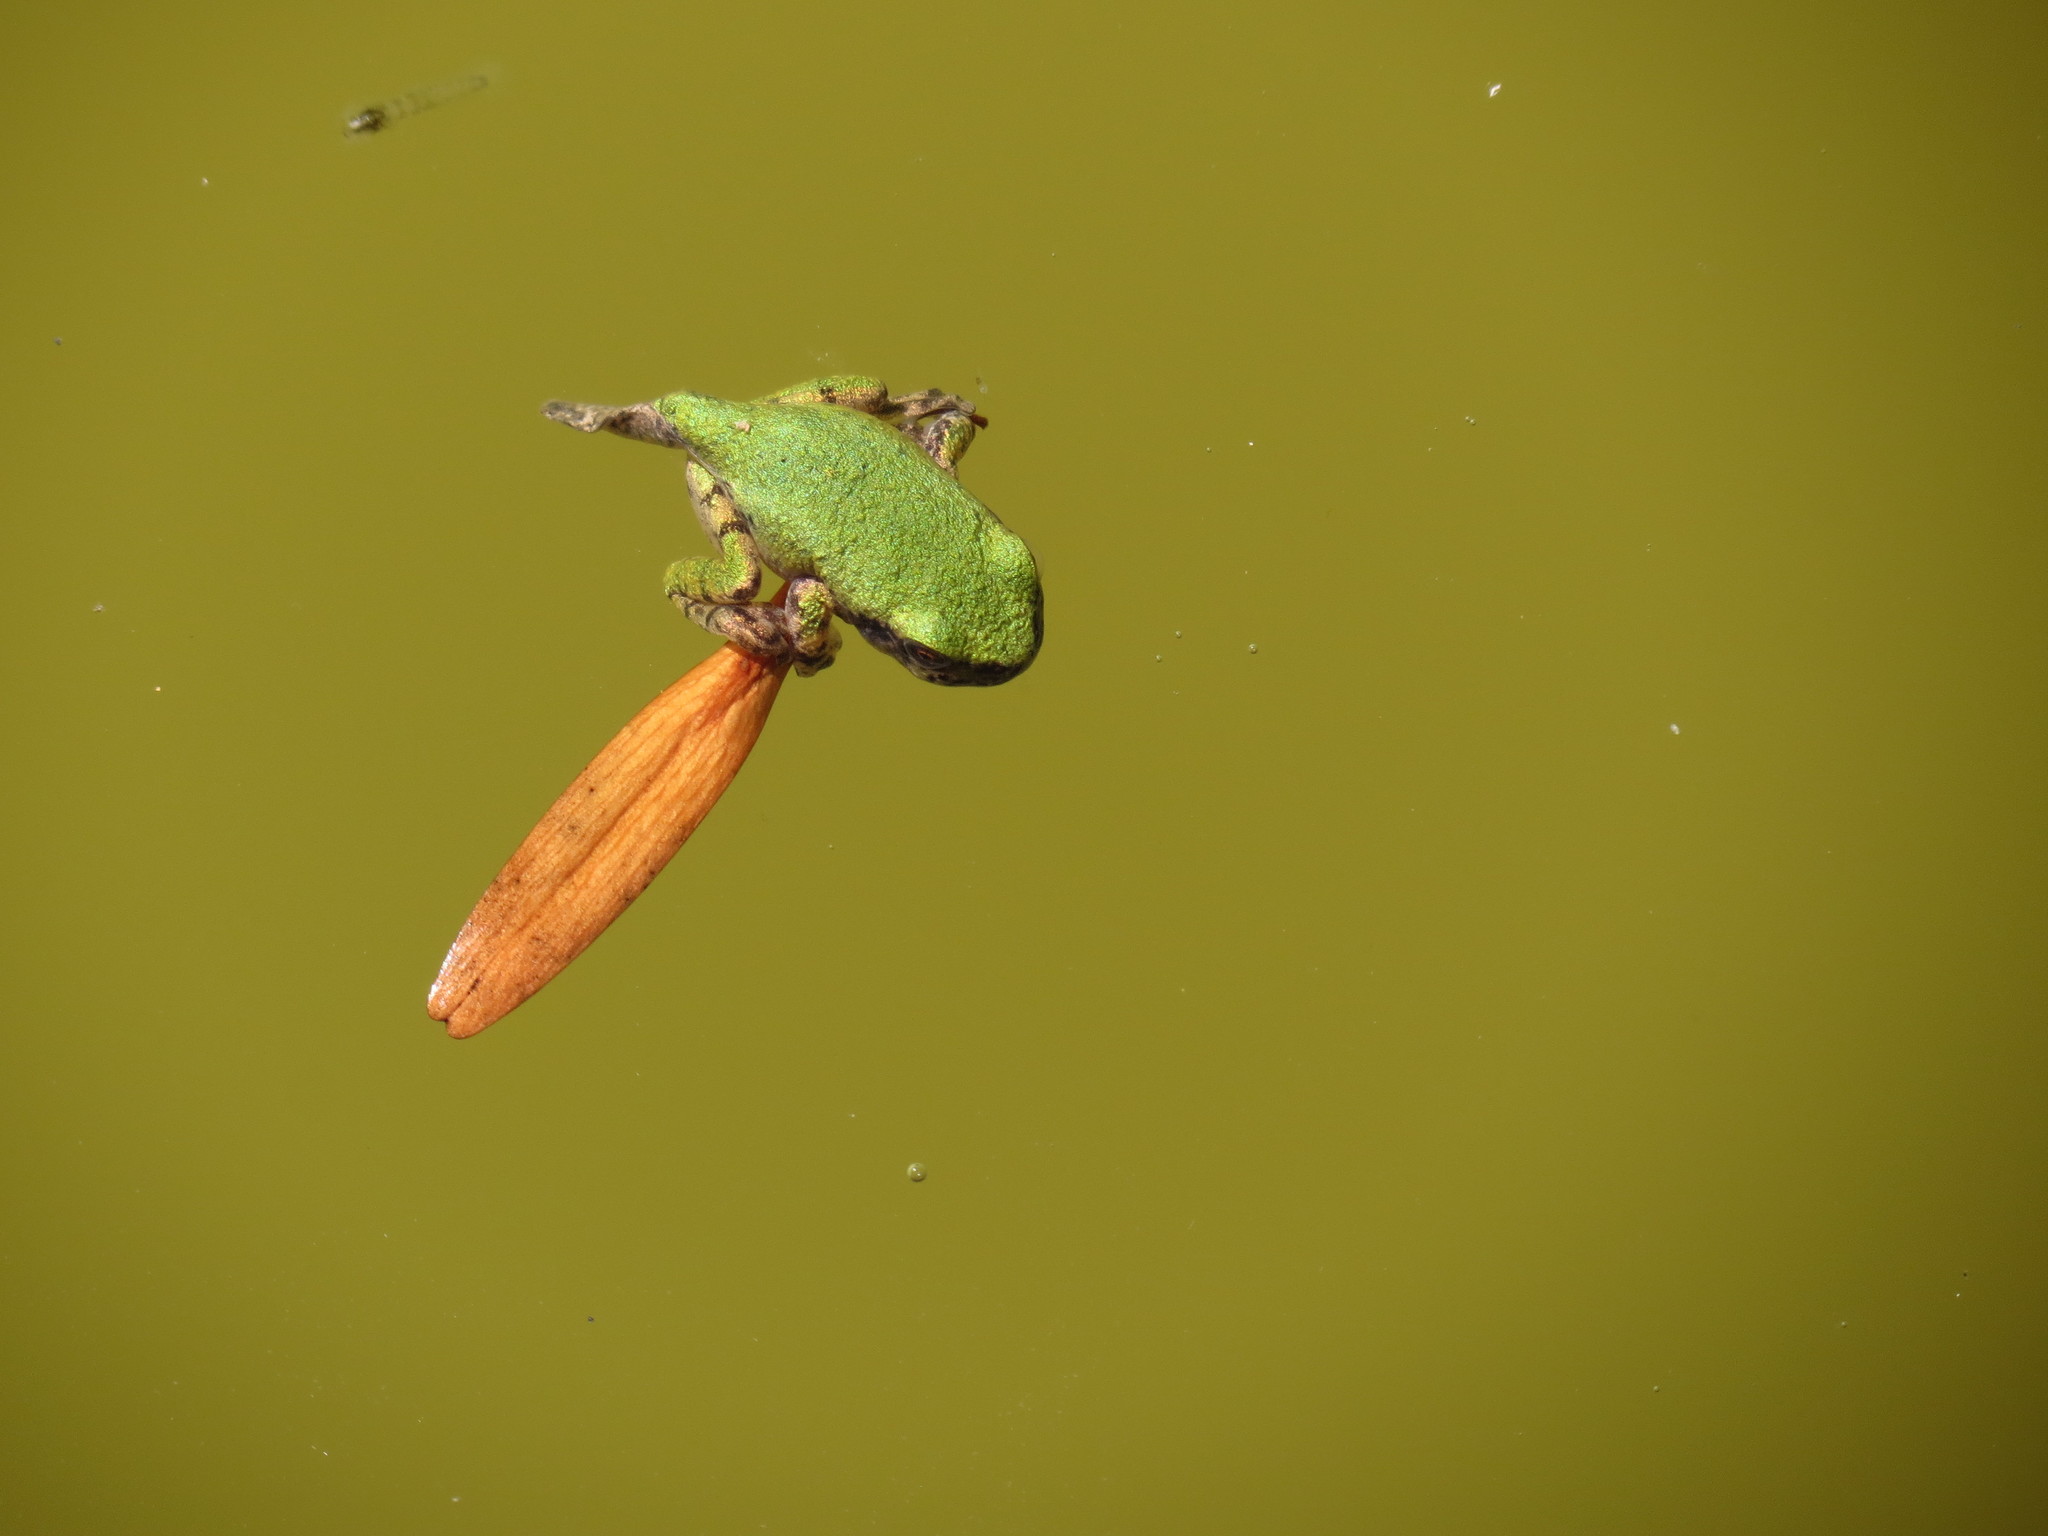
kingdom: Animalia
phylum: Chordata
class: Amphibia
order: Anura
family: Hylidae
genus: Dryophytes
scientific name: Dryophytes versicolor
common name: Gray treefrog
